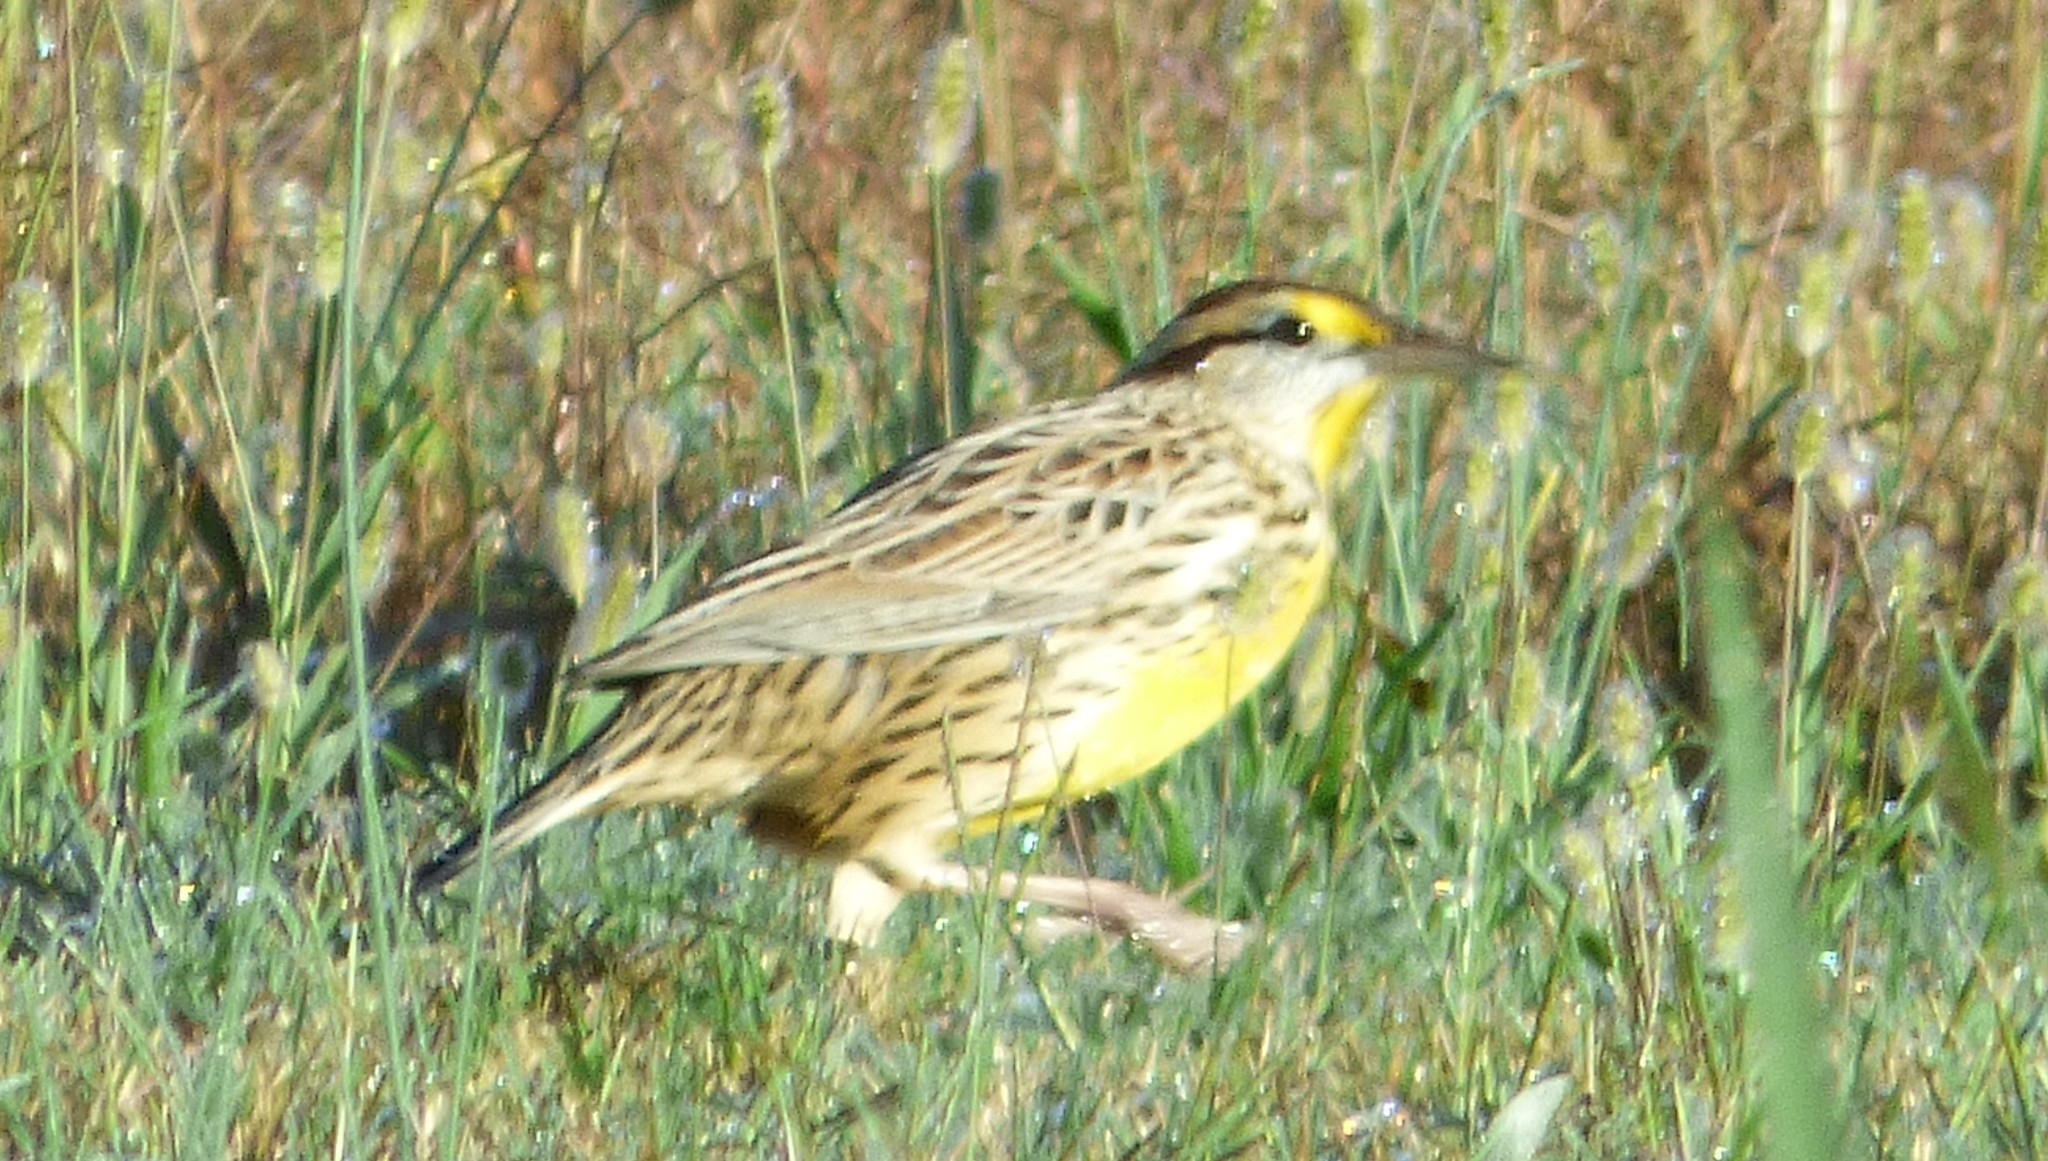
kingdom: Animalia
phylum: Chordata
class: Aves
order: Passeriformes
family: Icteridae
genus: Sturnella
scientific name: Sturnella magna
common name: Eastern meadowlark
